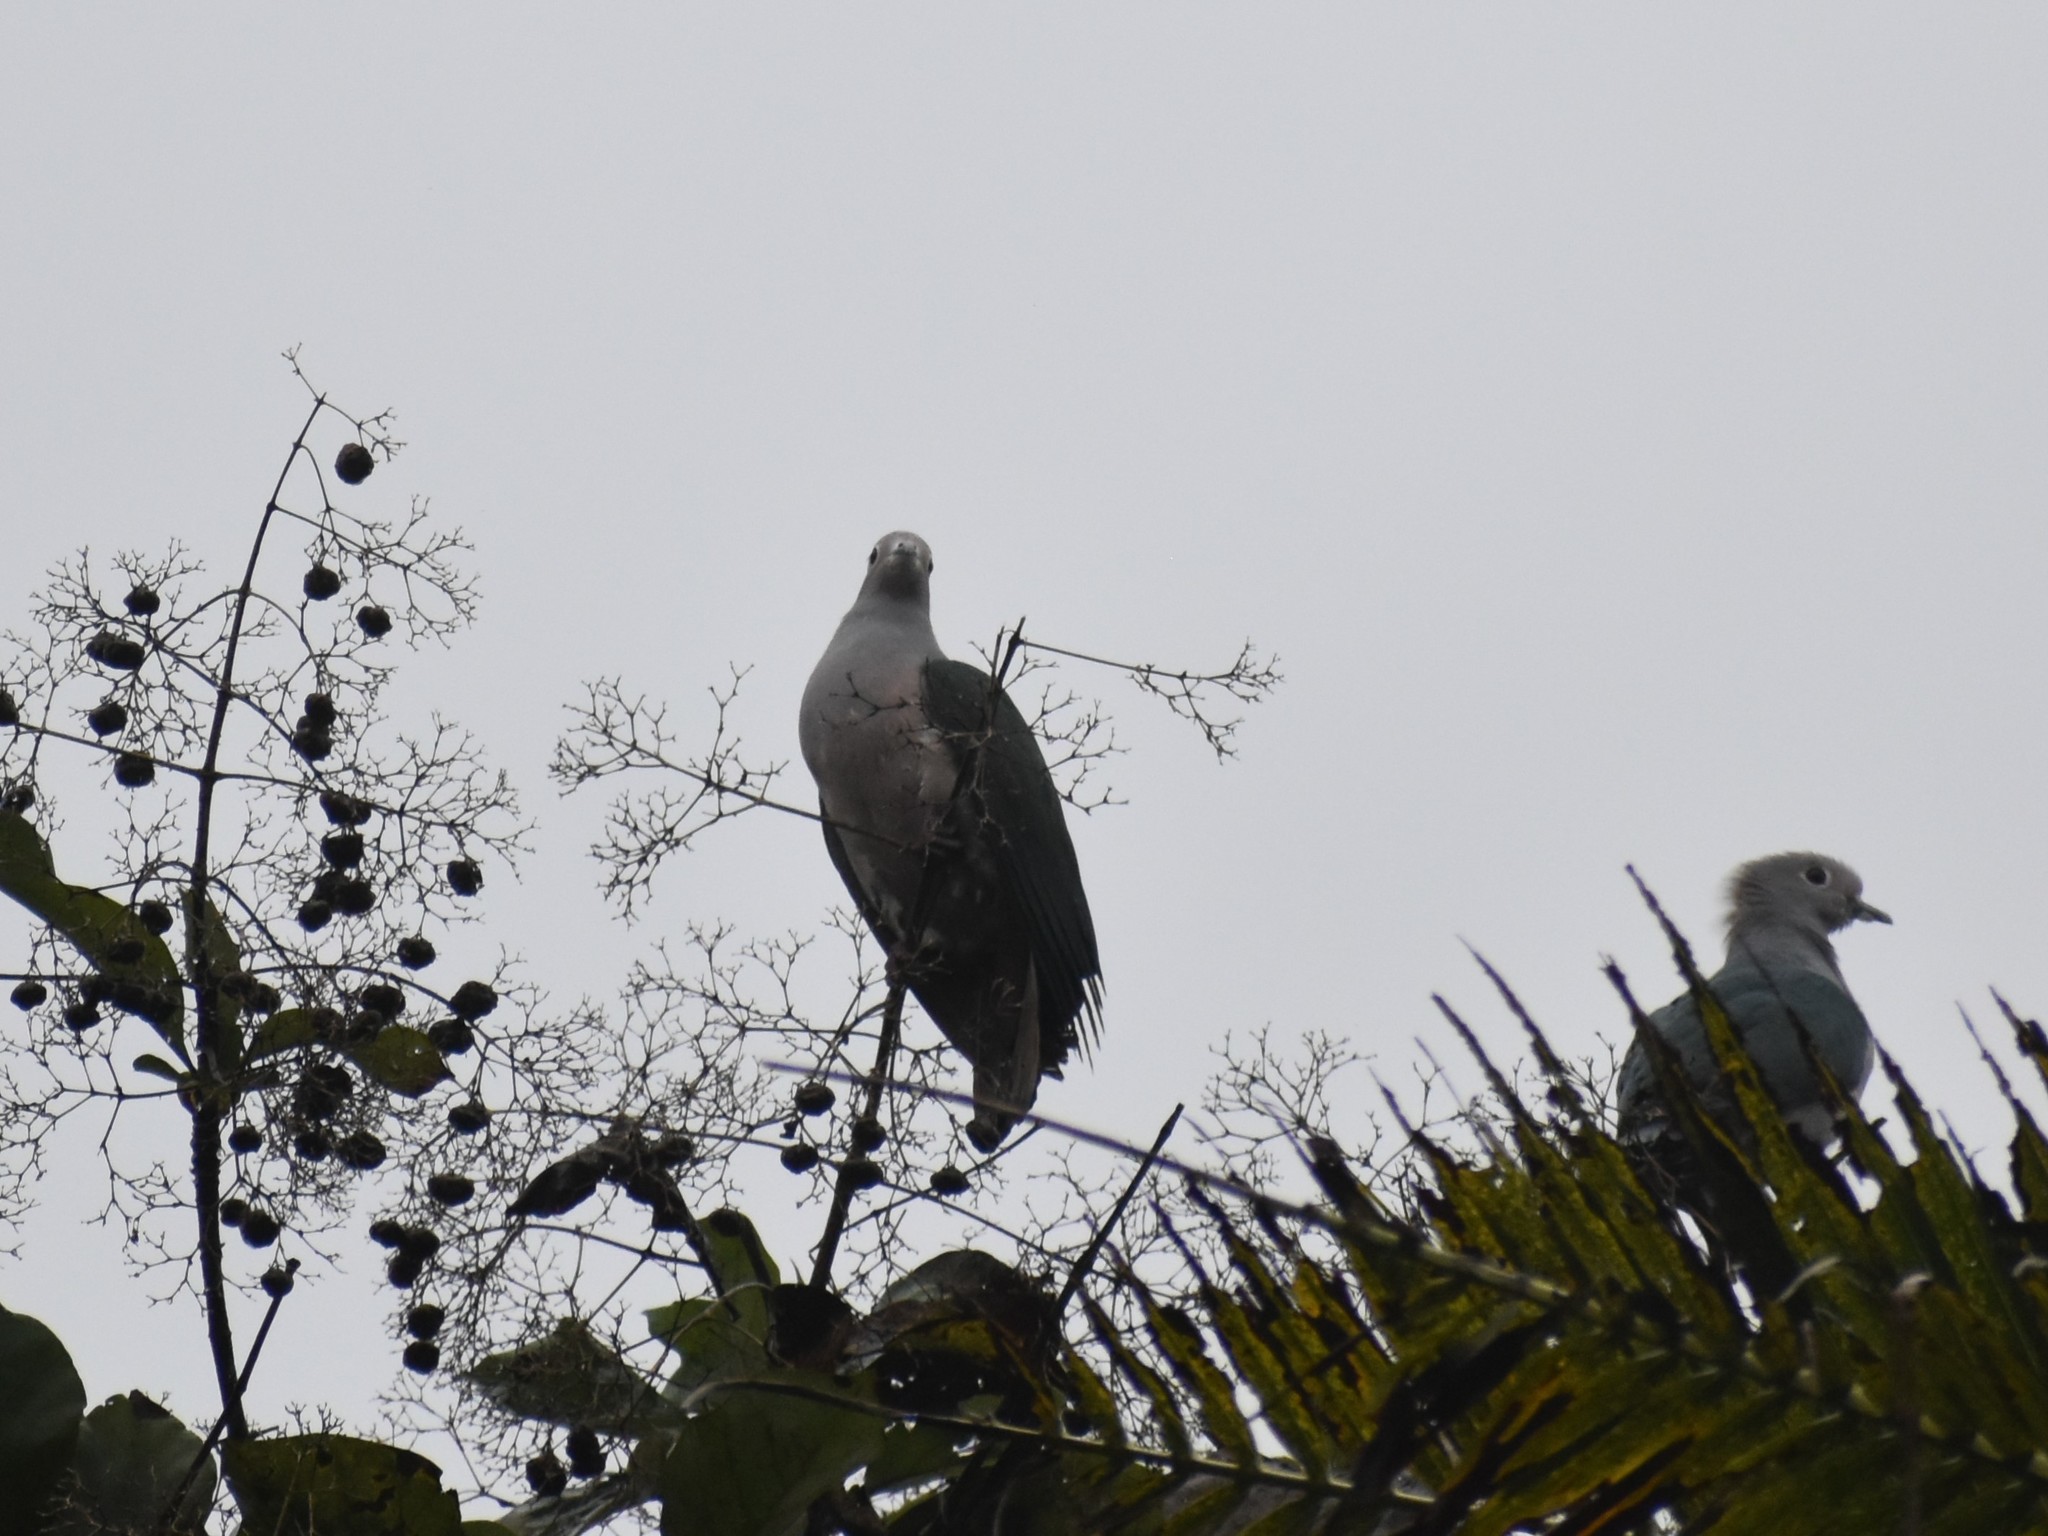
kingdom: Animalia
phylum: Chordata
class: Aves
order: Columbiformes
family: Columbidae
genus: Ducula
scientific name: Ducula aenea
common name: Green imperial pigeon
